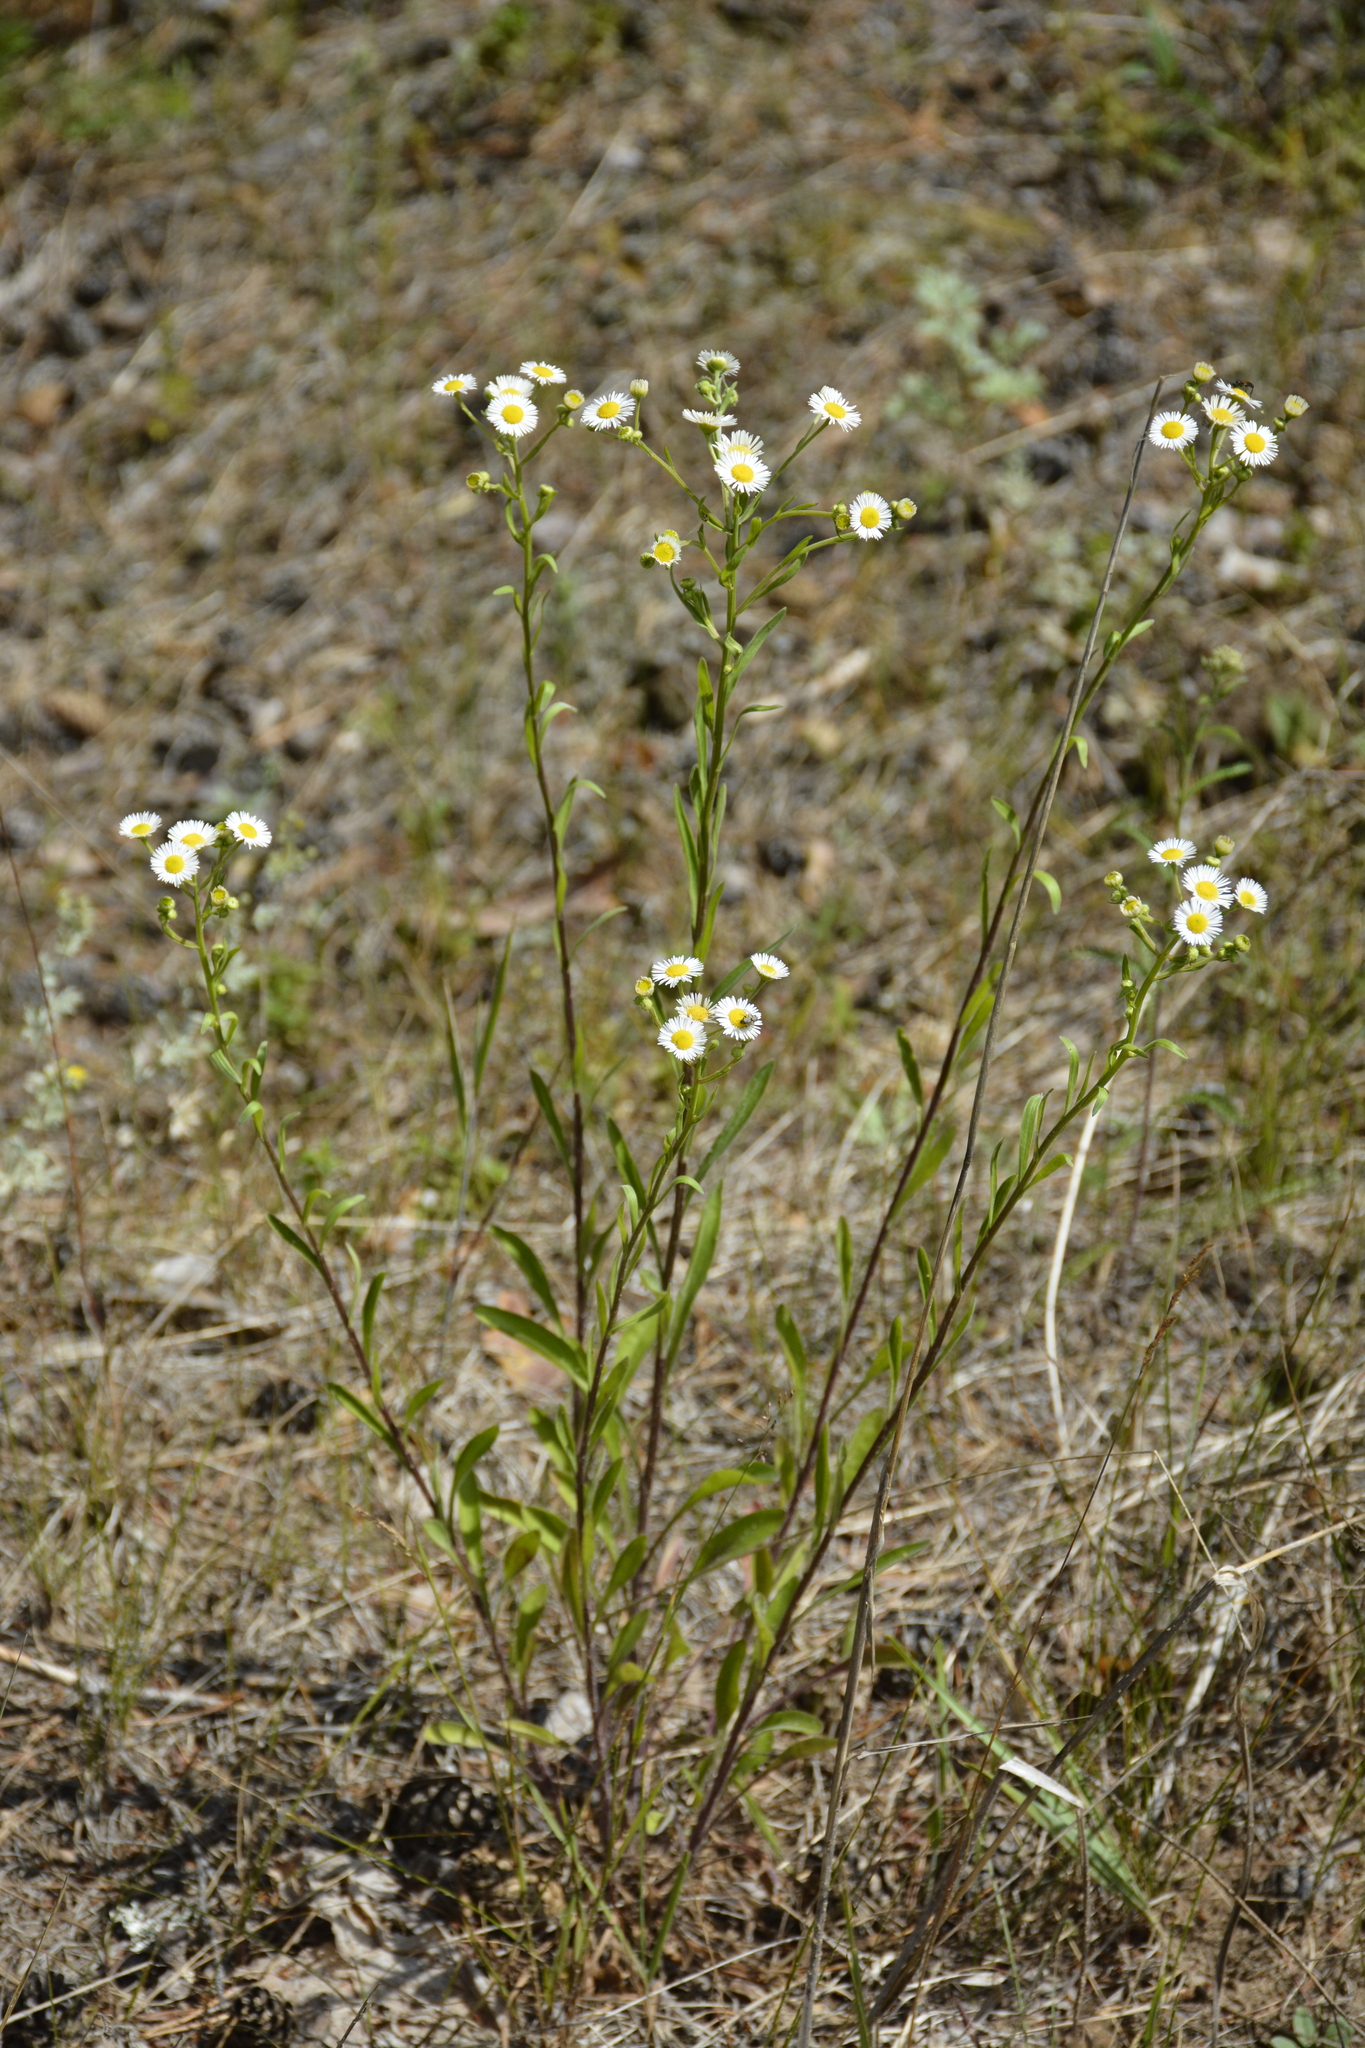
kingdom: Plantae
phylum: Tracheophyta
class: Magnoliopsida
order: Asterales
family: Asteraceae
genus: Erigeron
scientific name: Erigeron strigosus
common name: Common eastern fleabane
